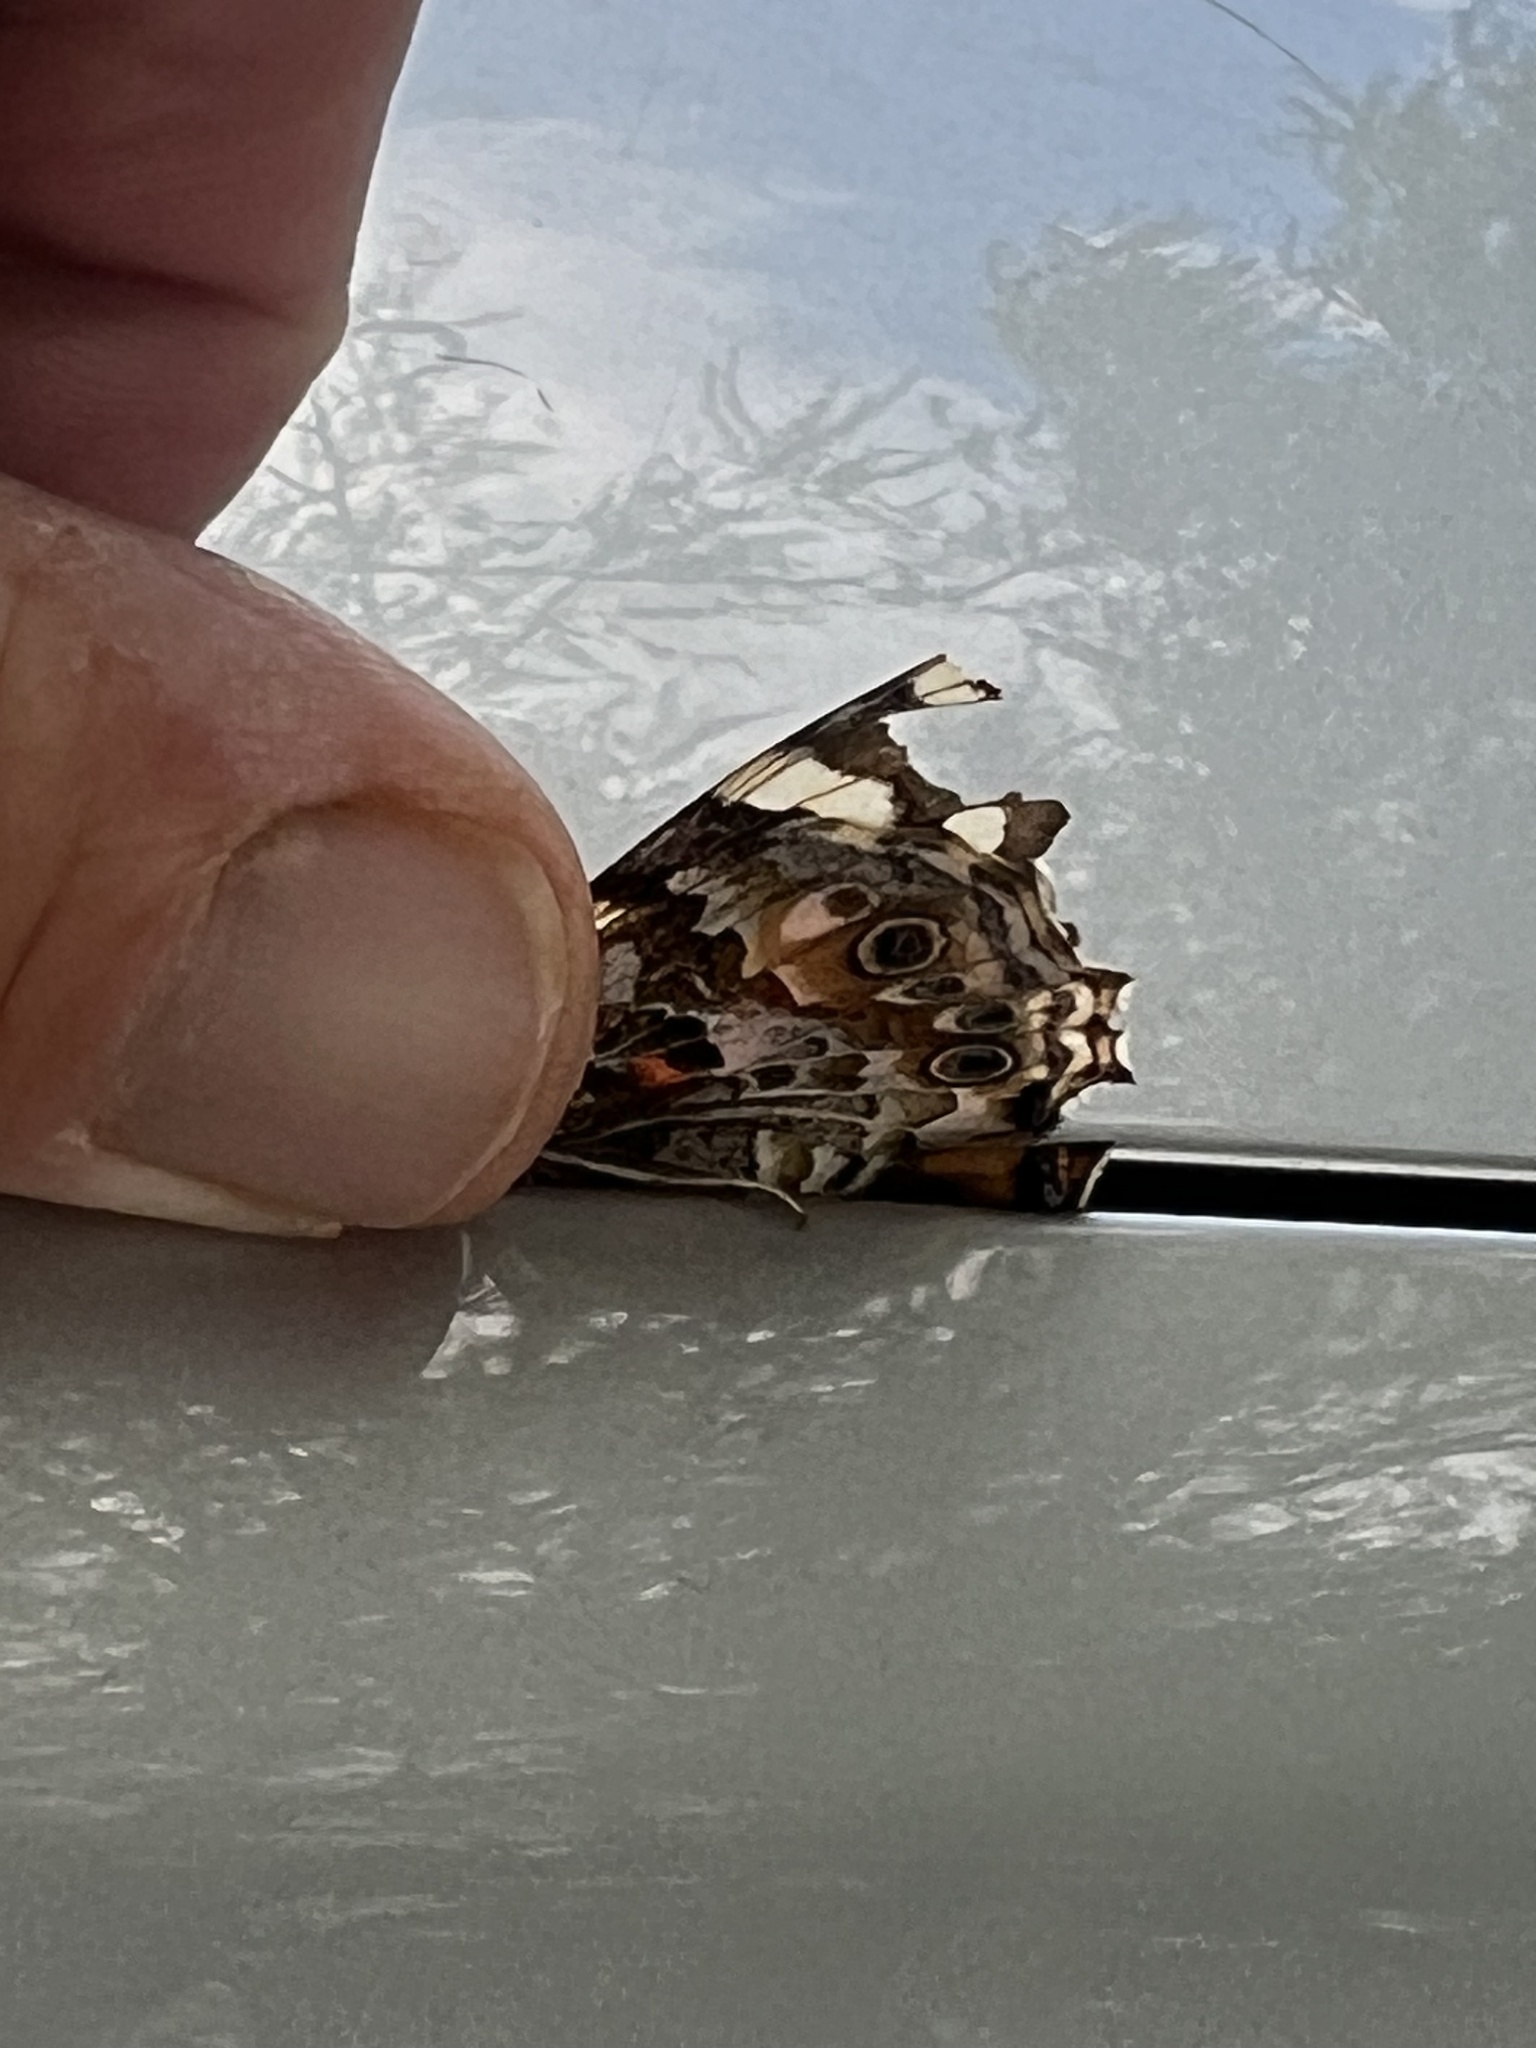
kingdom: Animalia
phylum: Arthropoda
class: Insecta
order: Lepidoptera
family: Nymphalidae
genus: Vanessa
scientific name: Vanessa cardui
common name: Painted lady
